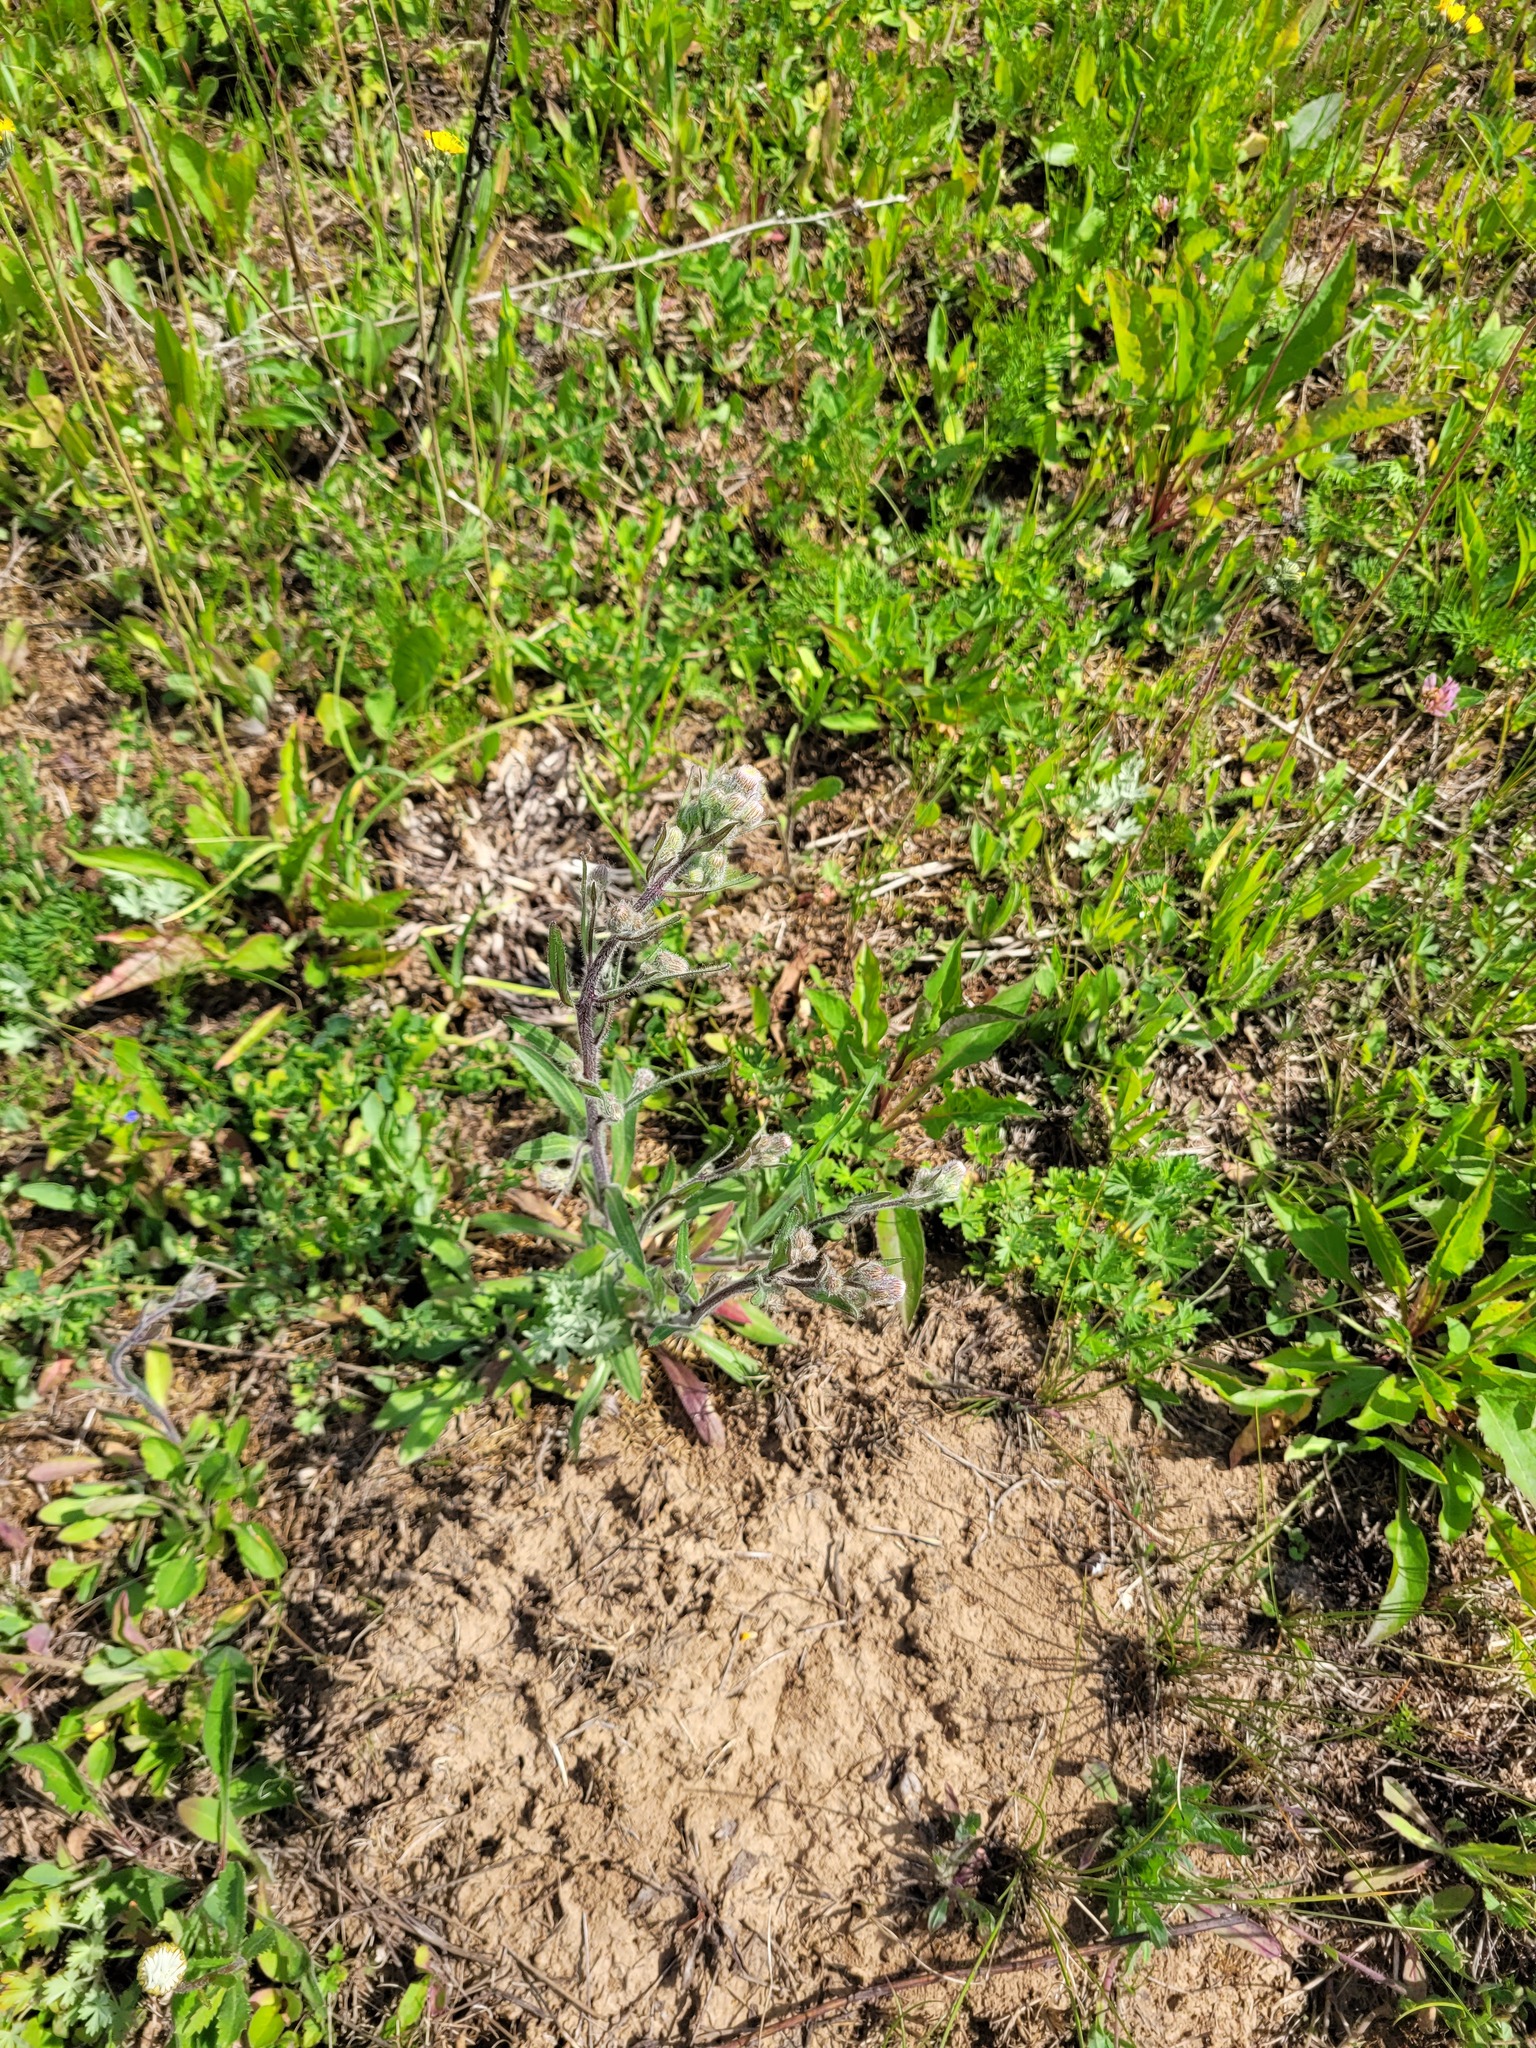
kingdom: Plantae
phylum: Tracheophyta
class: Magnoliopsida
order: Asterales
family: Asteraceae
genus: Erigeron
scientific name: Erigeron acris
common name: Blue fleabane
